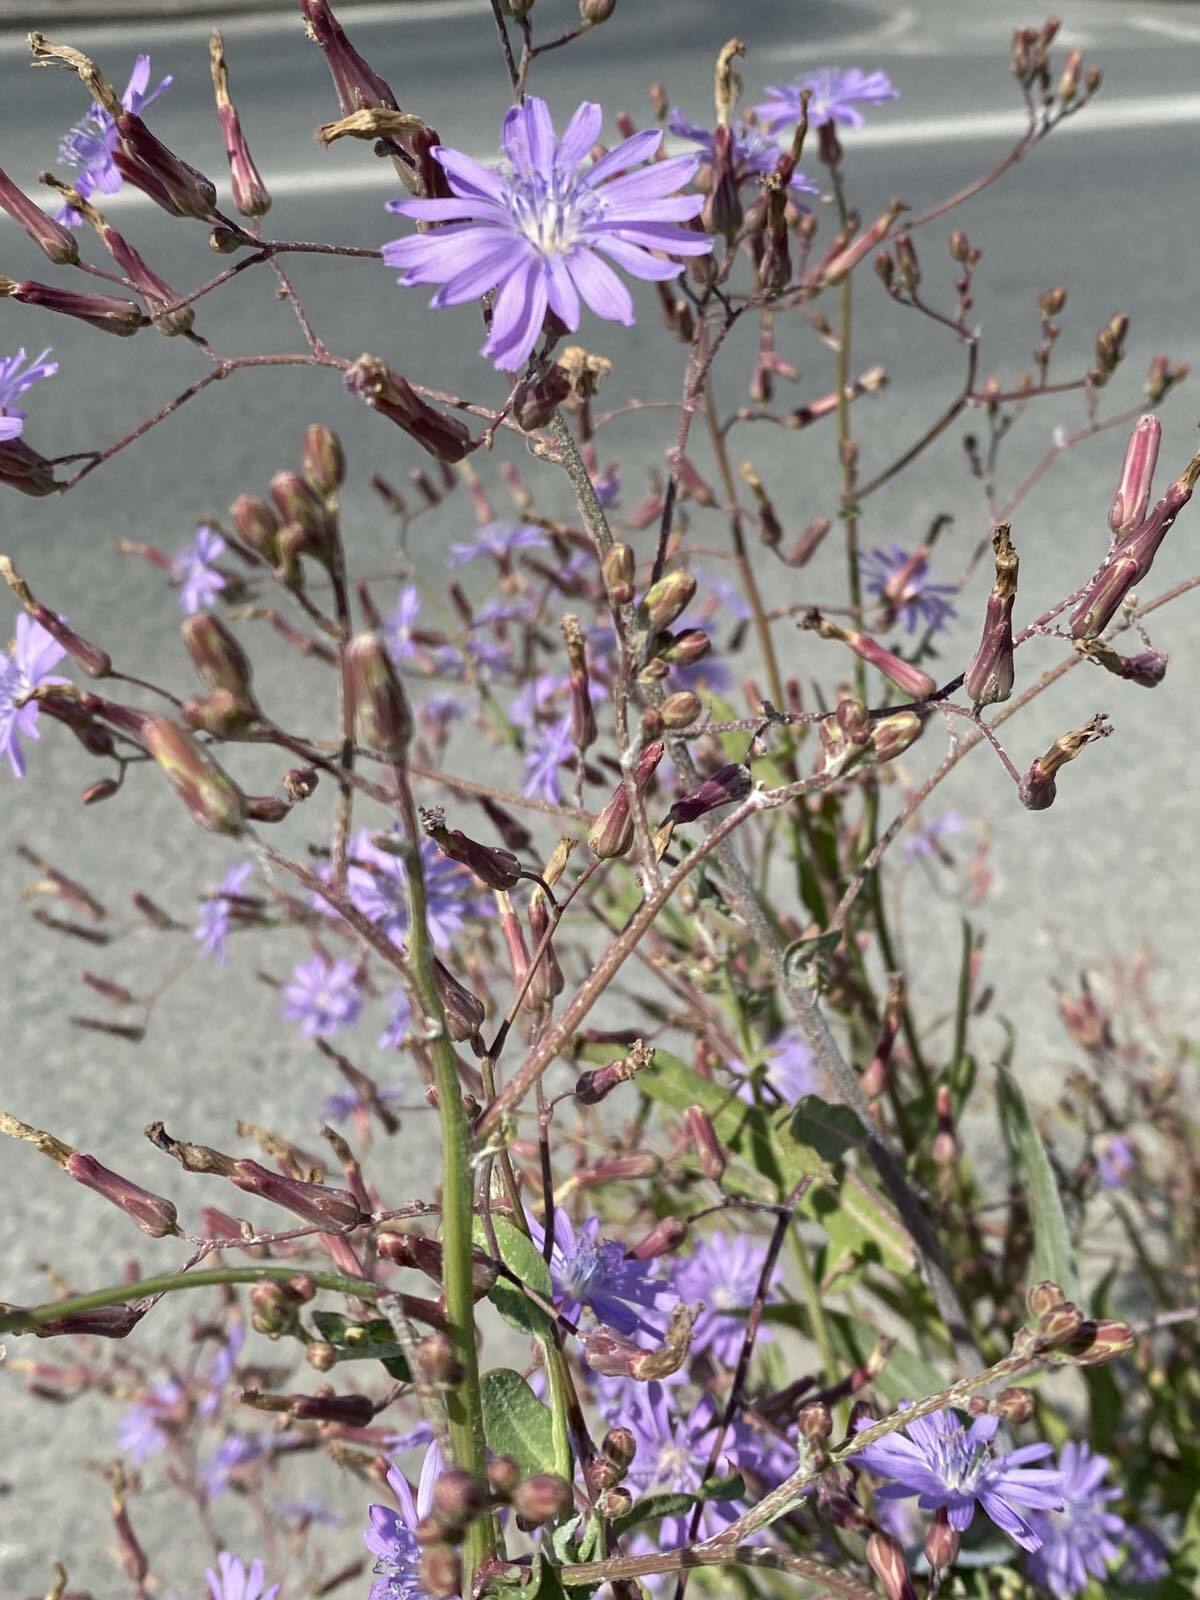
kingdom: Plantae
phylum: Tracheophyta
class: Magnoliopsida
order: Asterales
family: Asteraceae
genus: Lactuca
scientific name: Lactuca tatarica
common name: Blue lettuce
